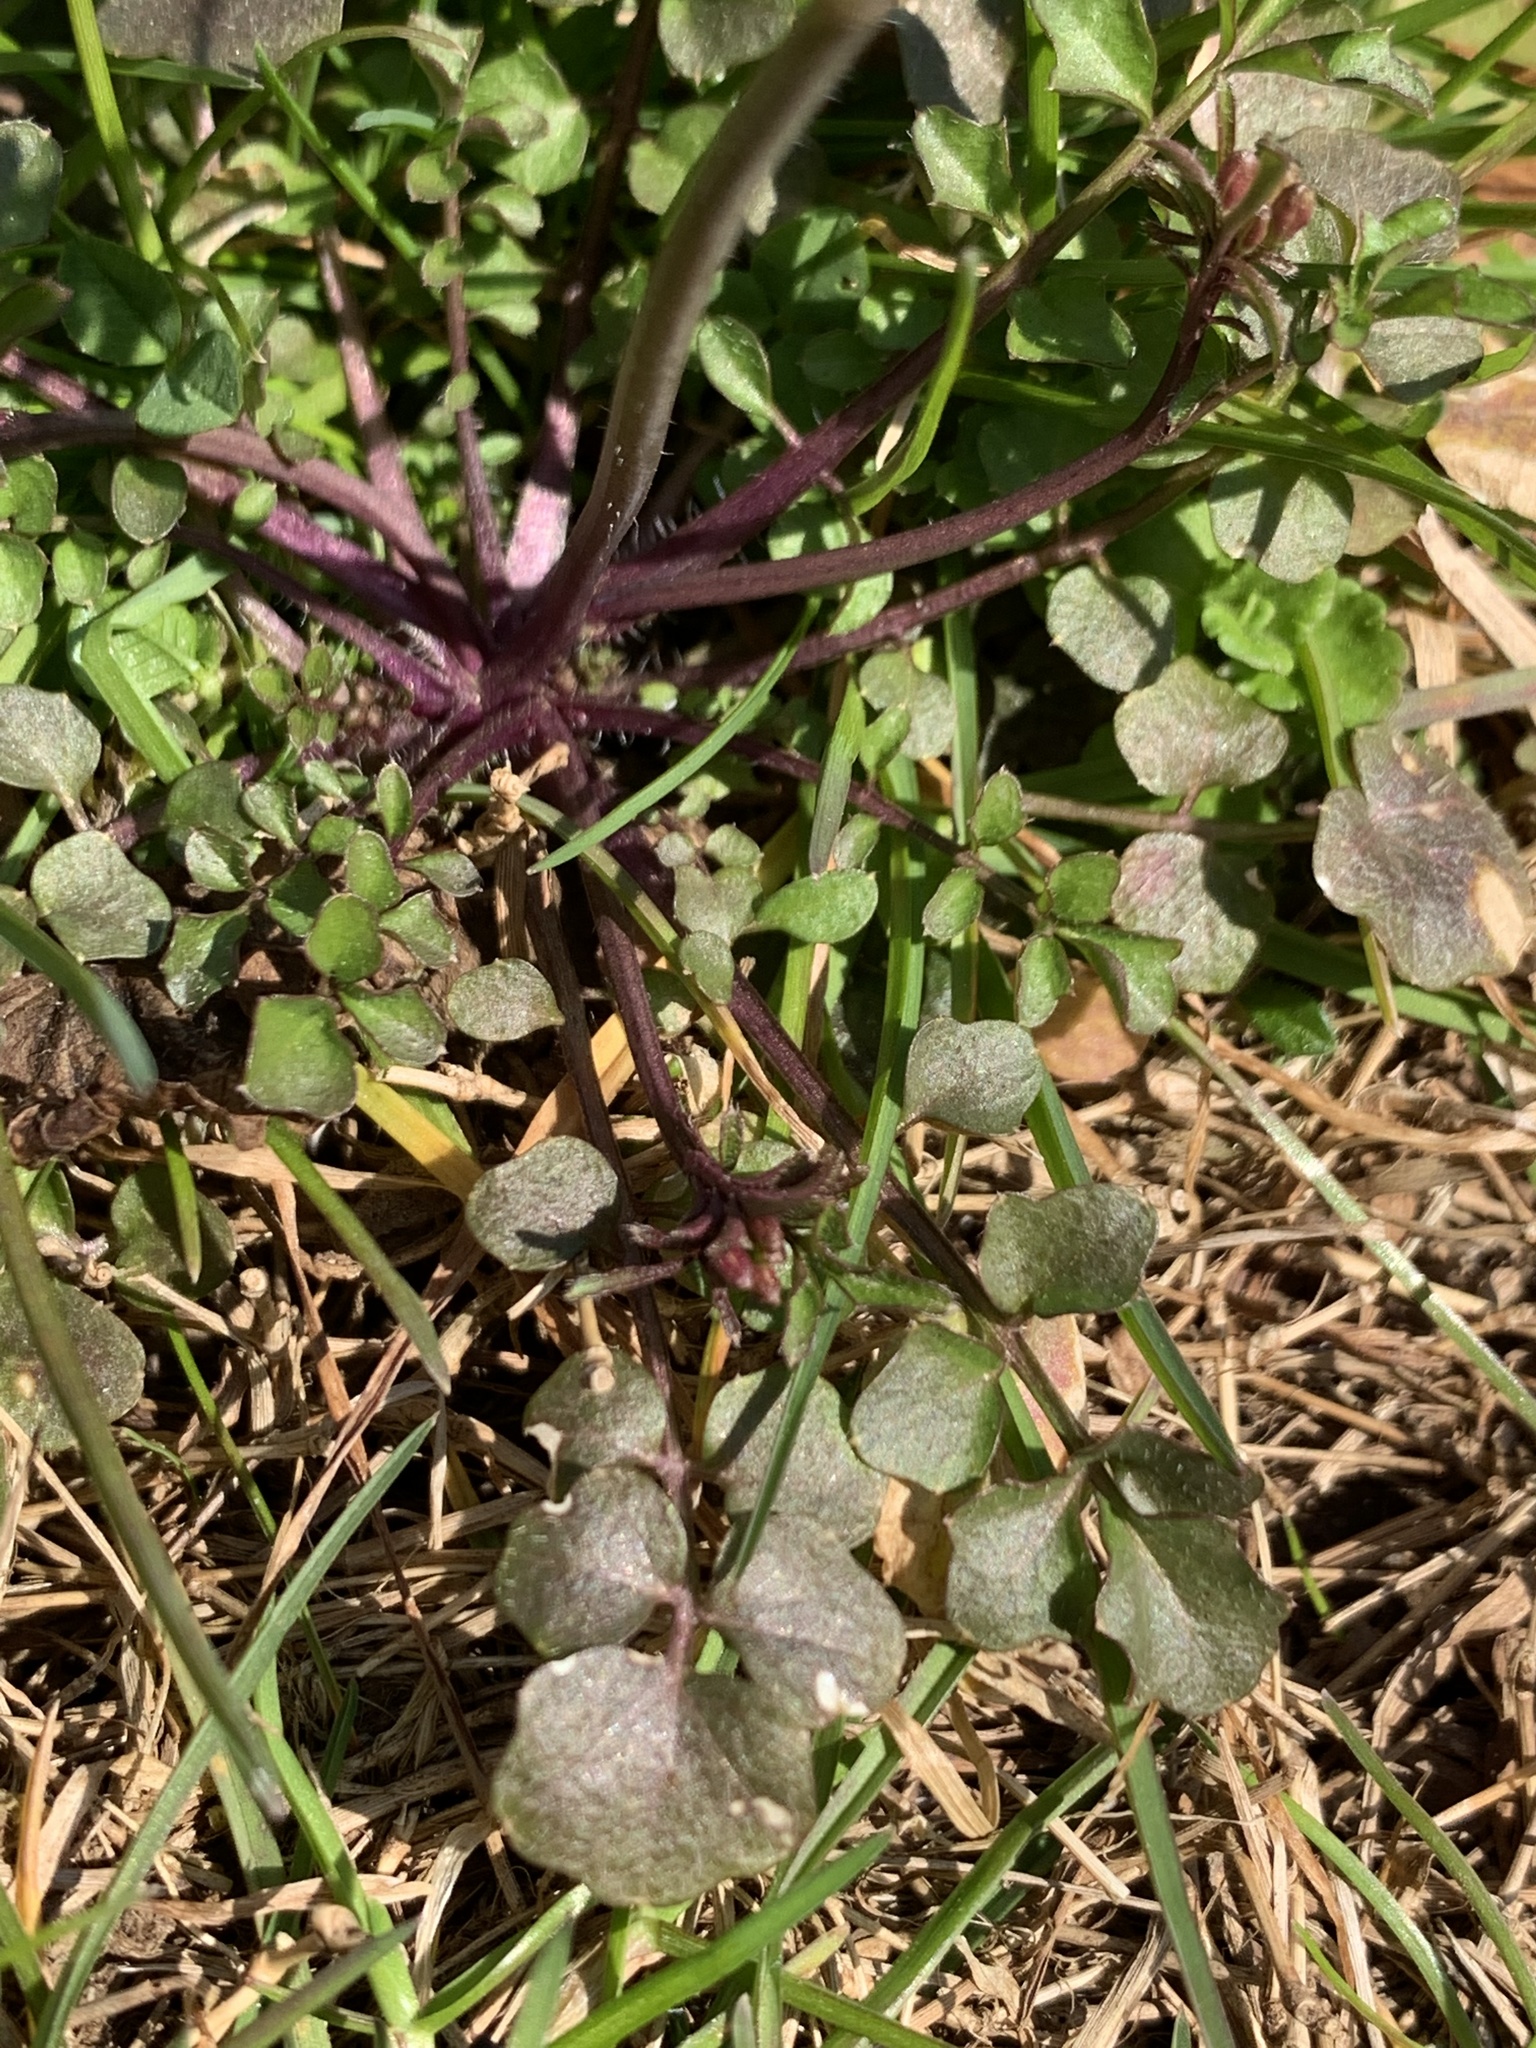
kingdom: Plantae
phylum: Tracheophyta
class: Magnoliopsida
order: Brassicales
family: Brassicaceae
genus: Cardamine
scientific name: Cardamine hirsuta
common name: Hairy bittercress
